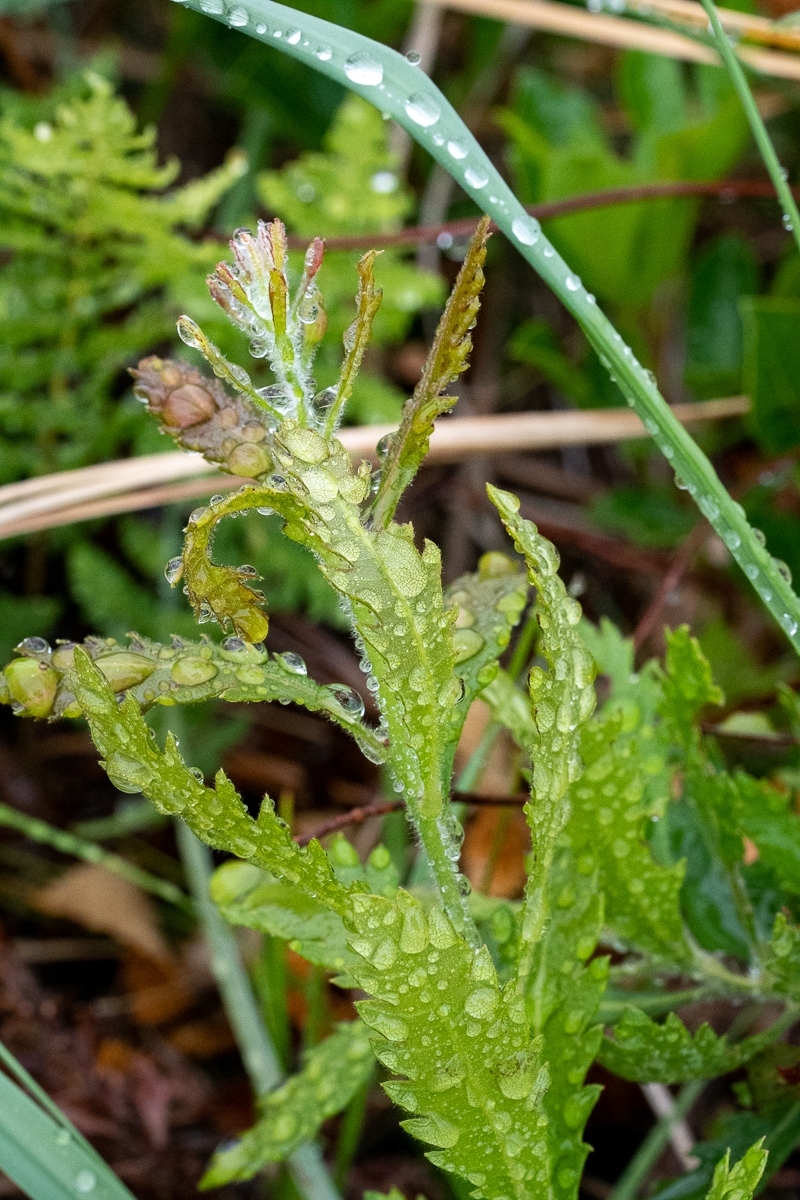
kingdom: Plantae
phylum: Tracheophyta
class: Magnoliopsida
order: Fagales
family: Myricaceae
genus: Morella
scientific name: Morella serrata
